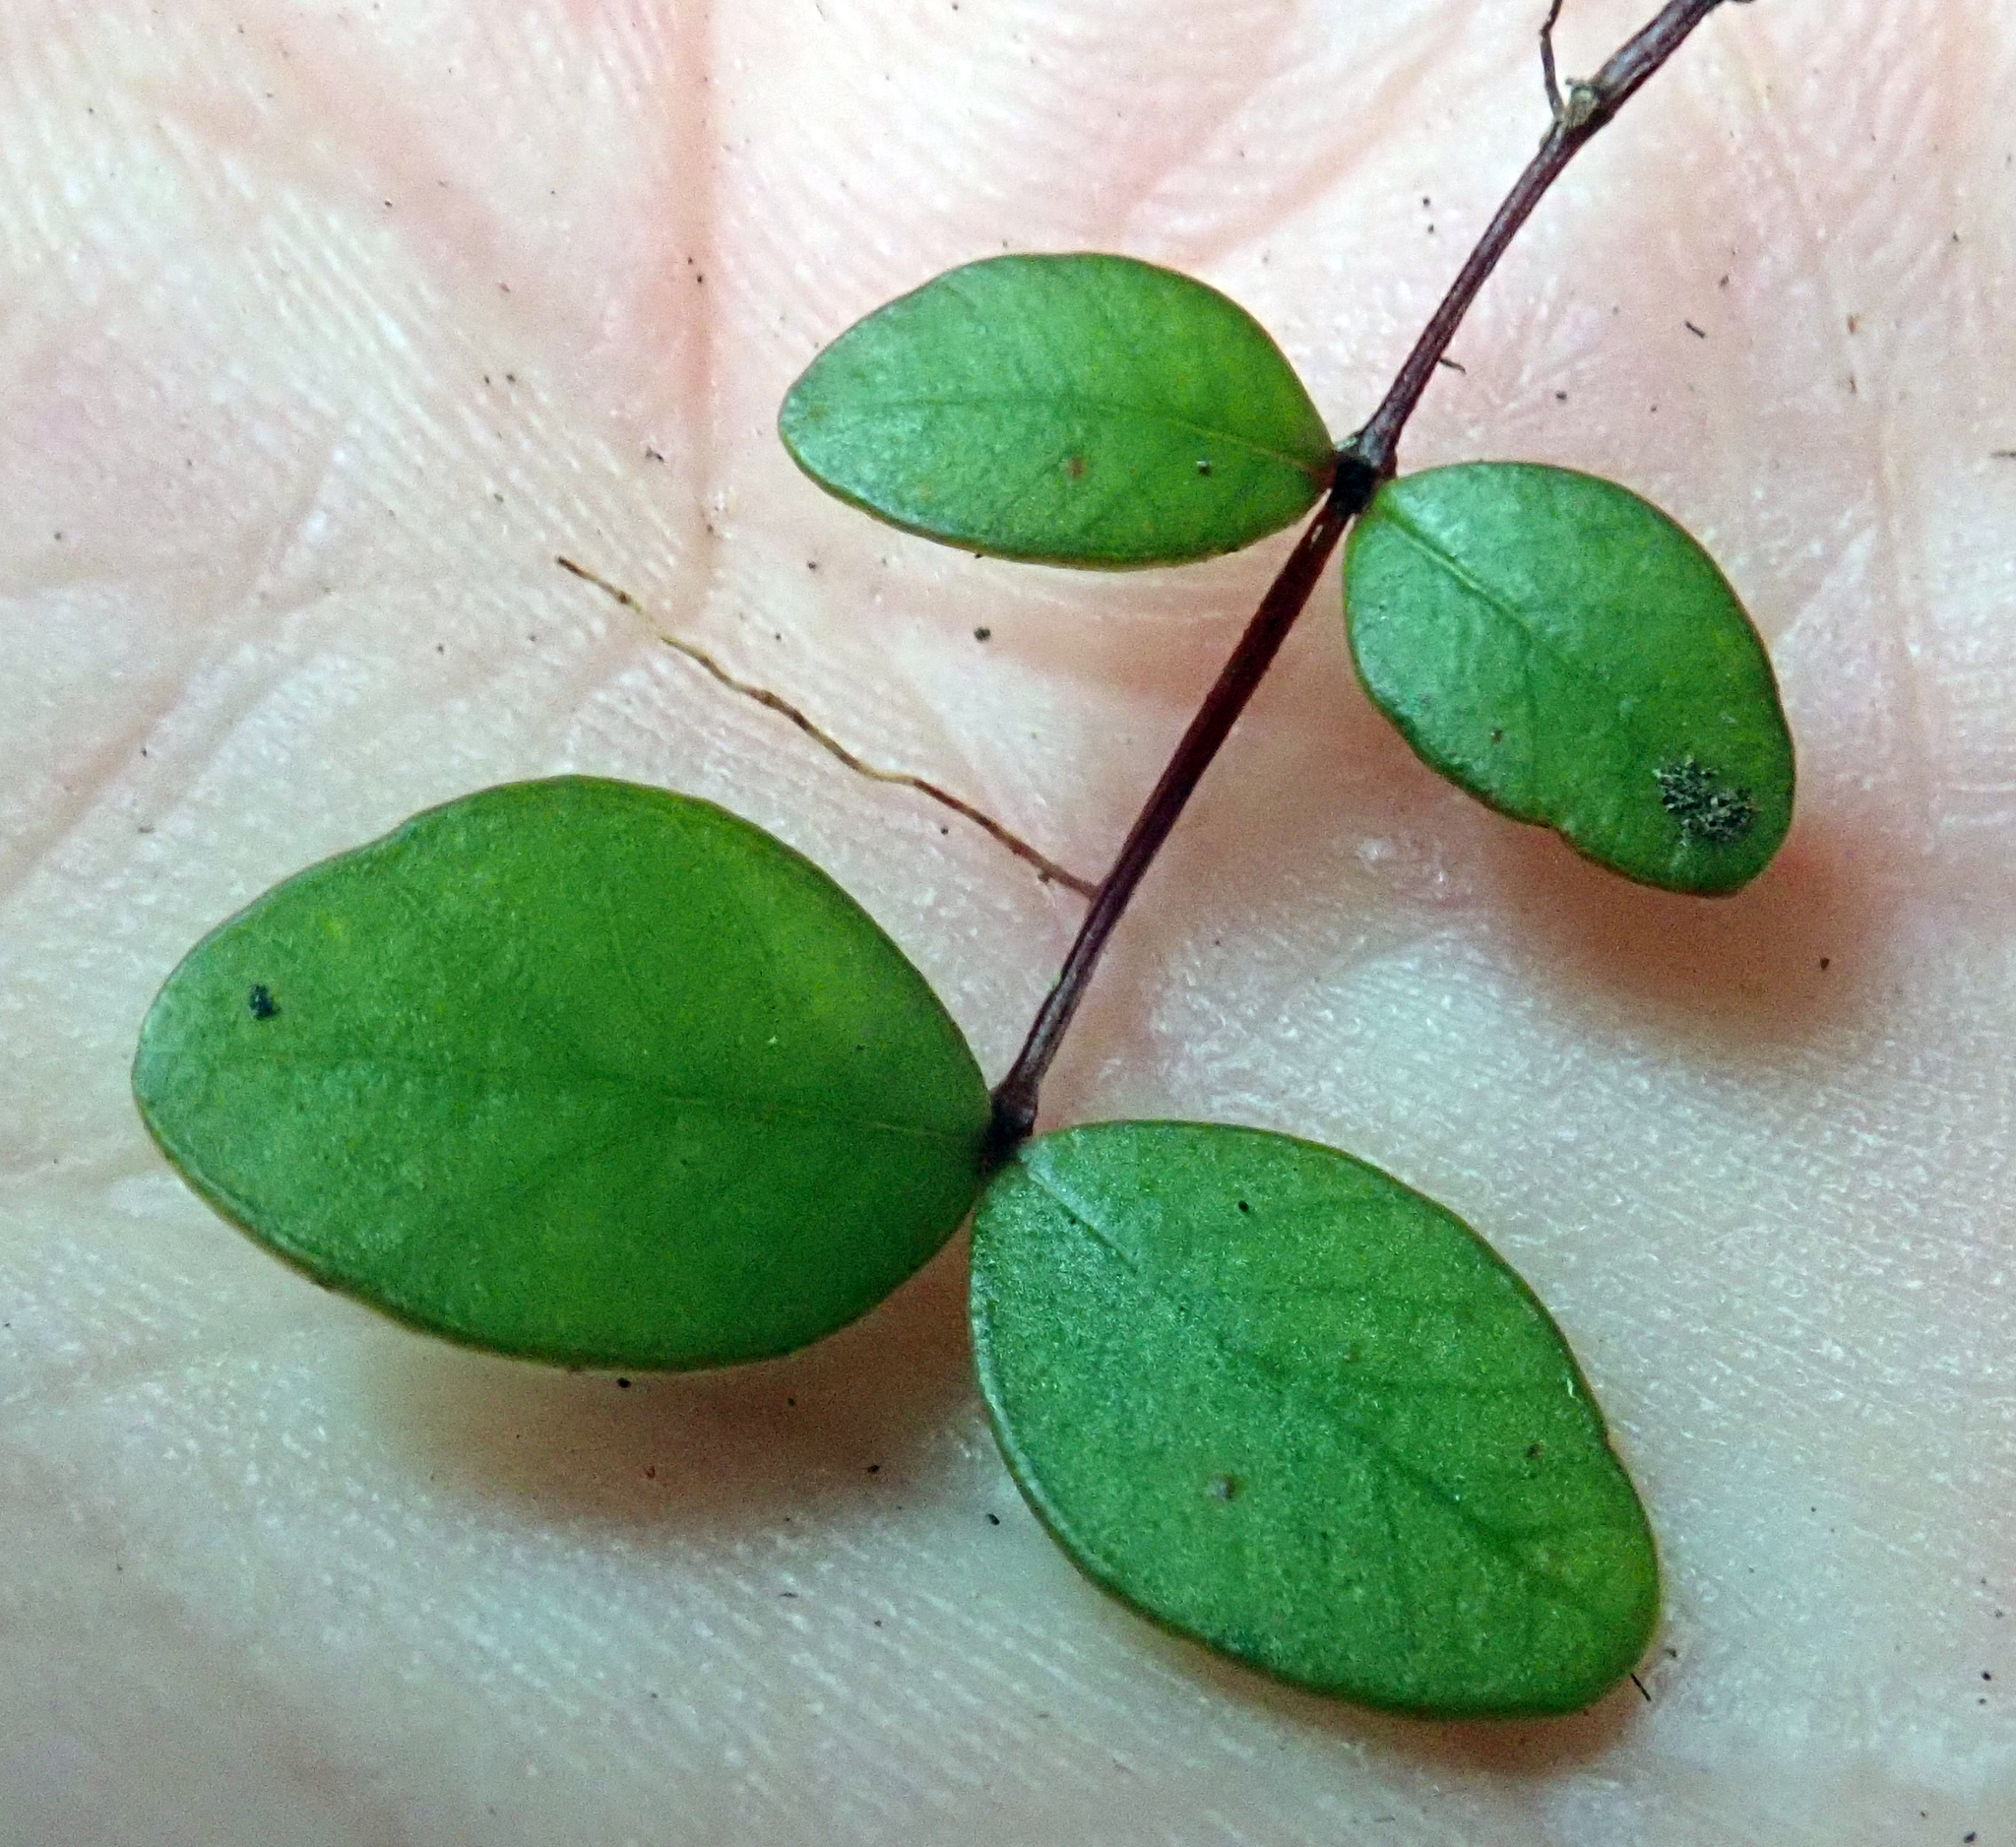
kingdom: Plantae
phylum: Tracheophyta
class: Magnoliopsida
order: Myrtales
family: Myrtaceae
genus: Metrosideros
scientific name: Metrosideros fulgens
